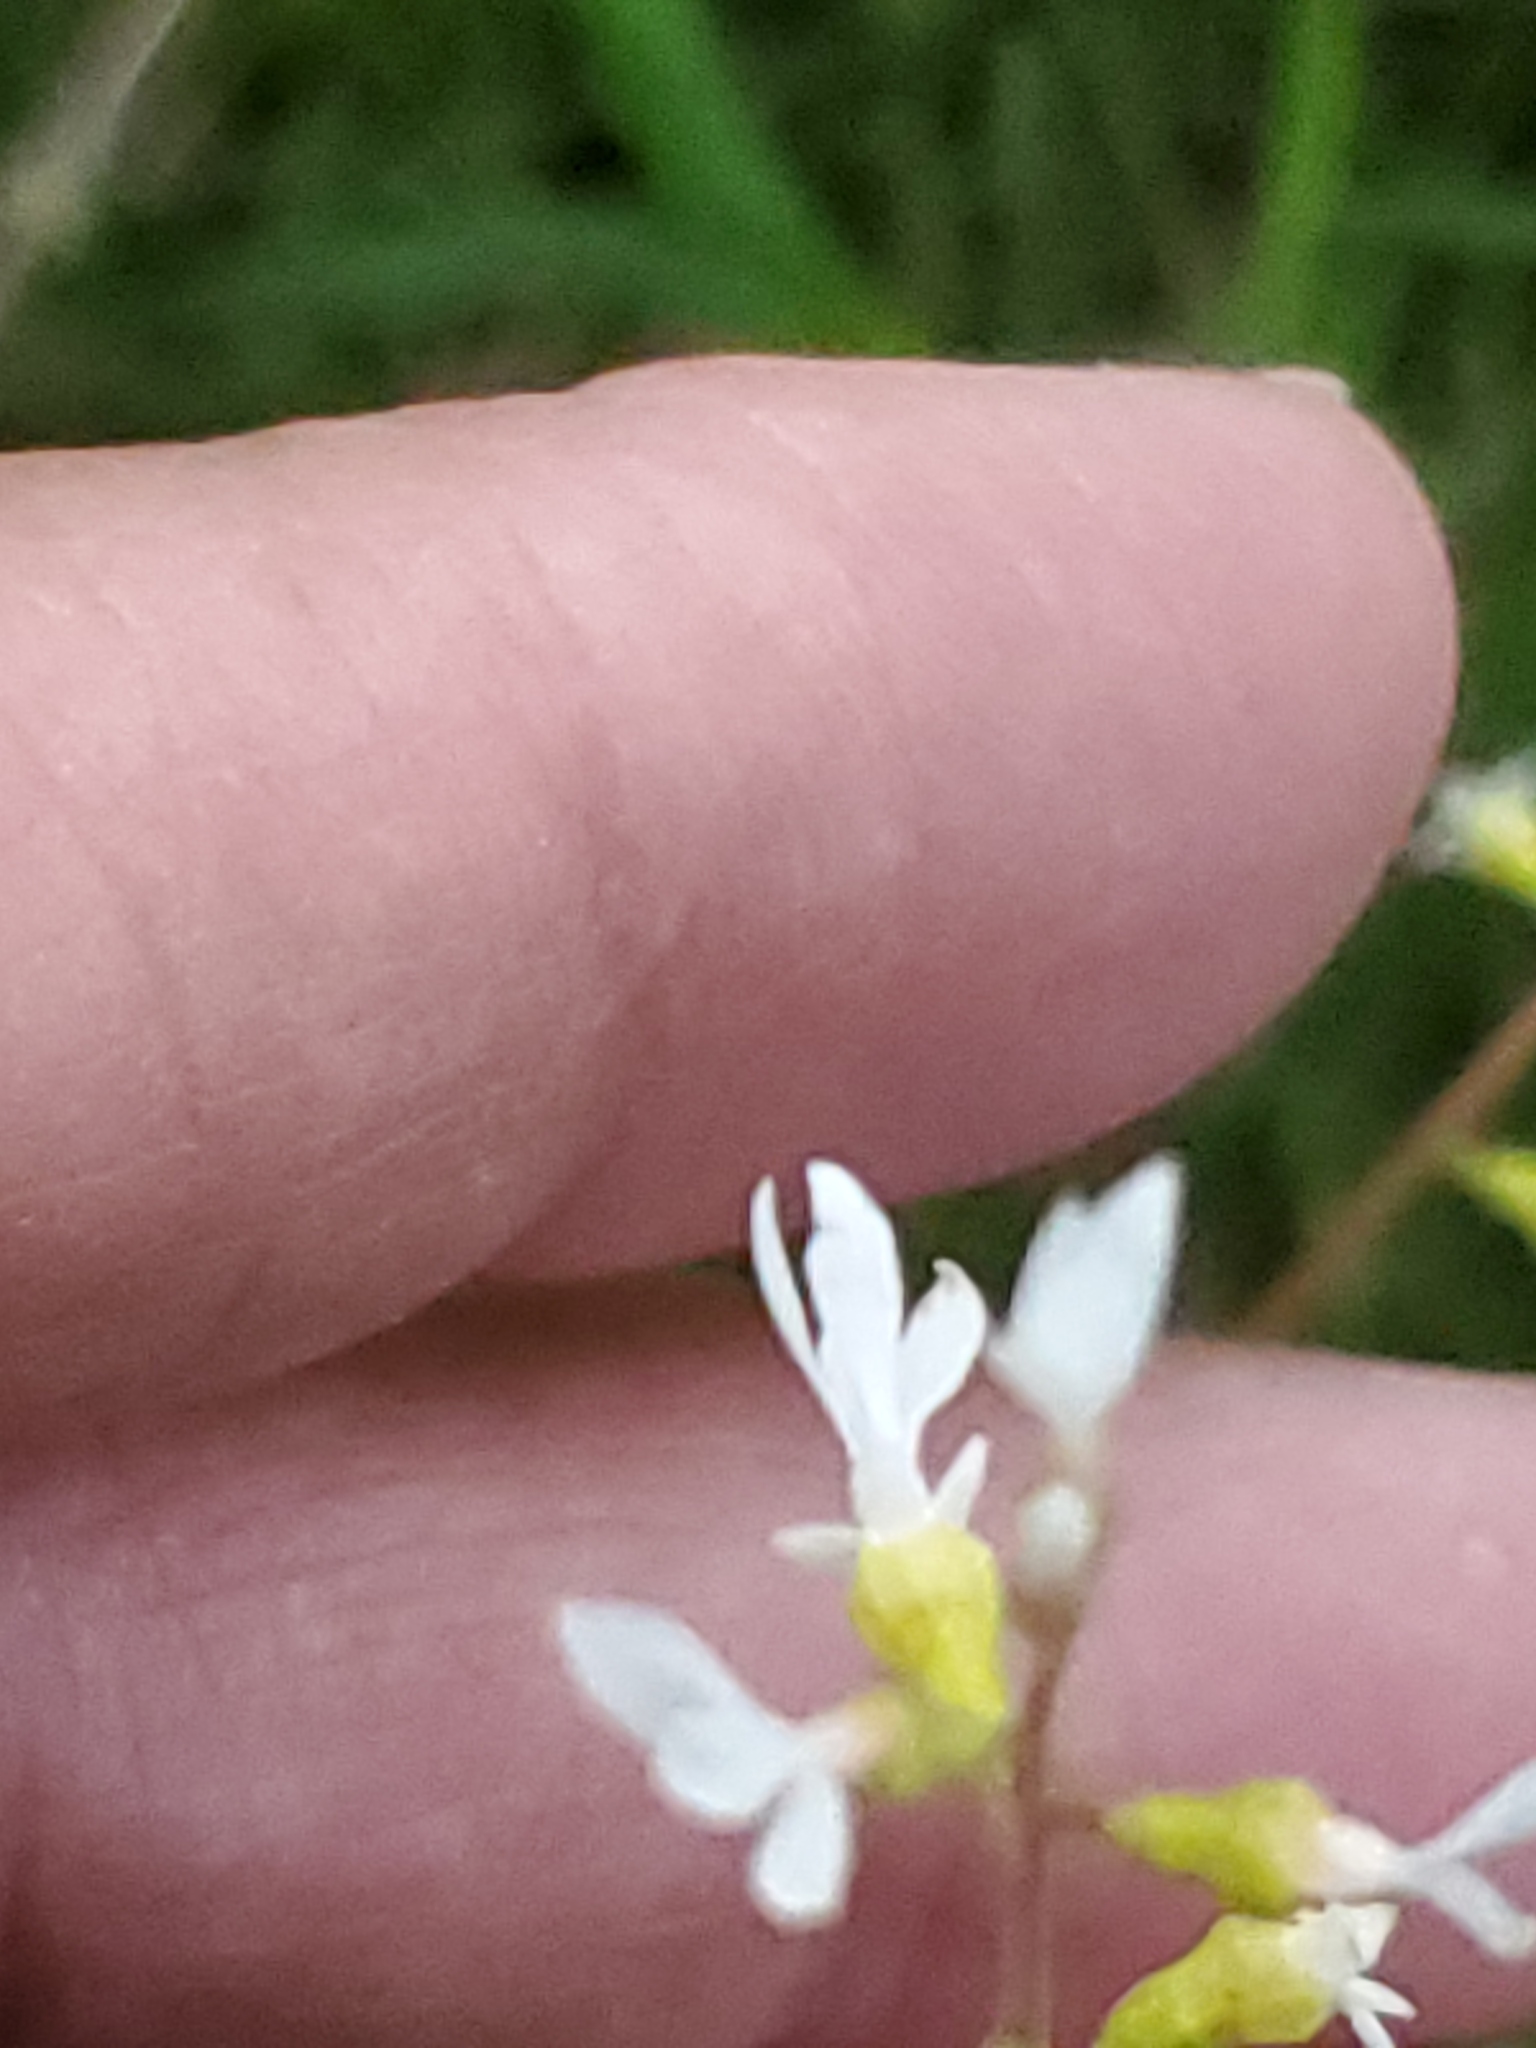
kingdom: Plantae
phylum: Tracheophyta
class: Magnoliopsida
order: Saxifragales
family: Saxifragaceae
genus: Conimitella
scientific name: Conimitella williamsii
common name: William's conimitella
